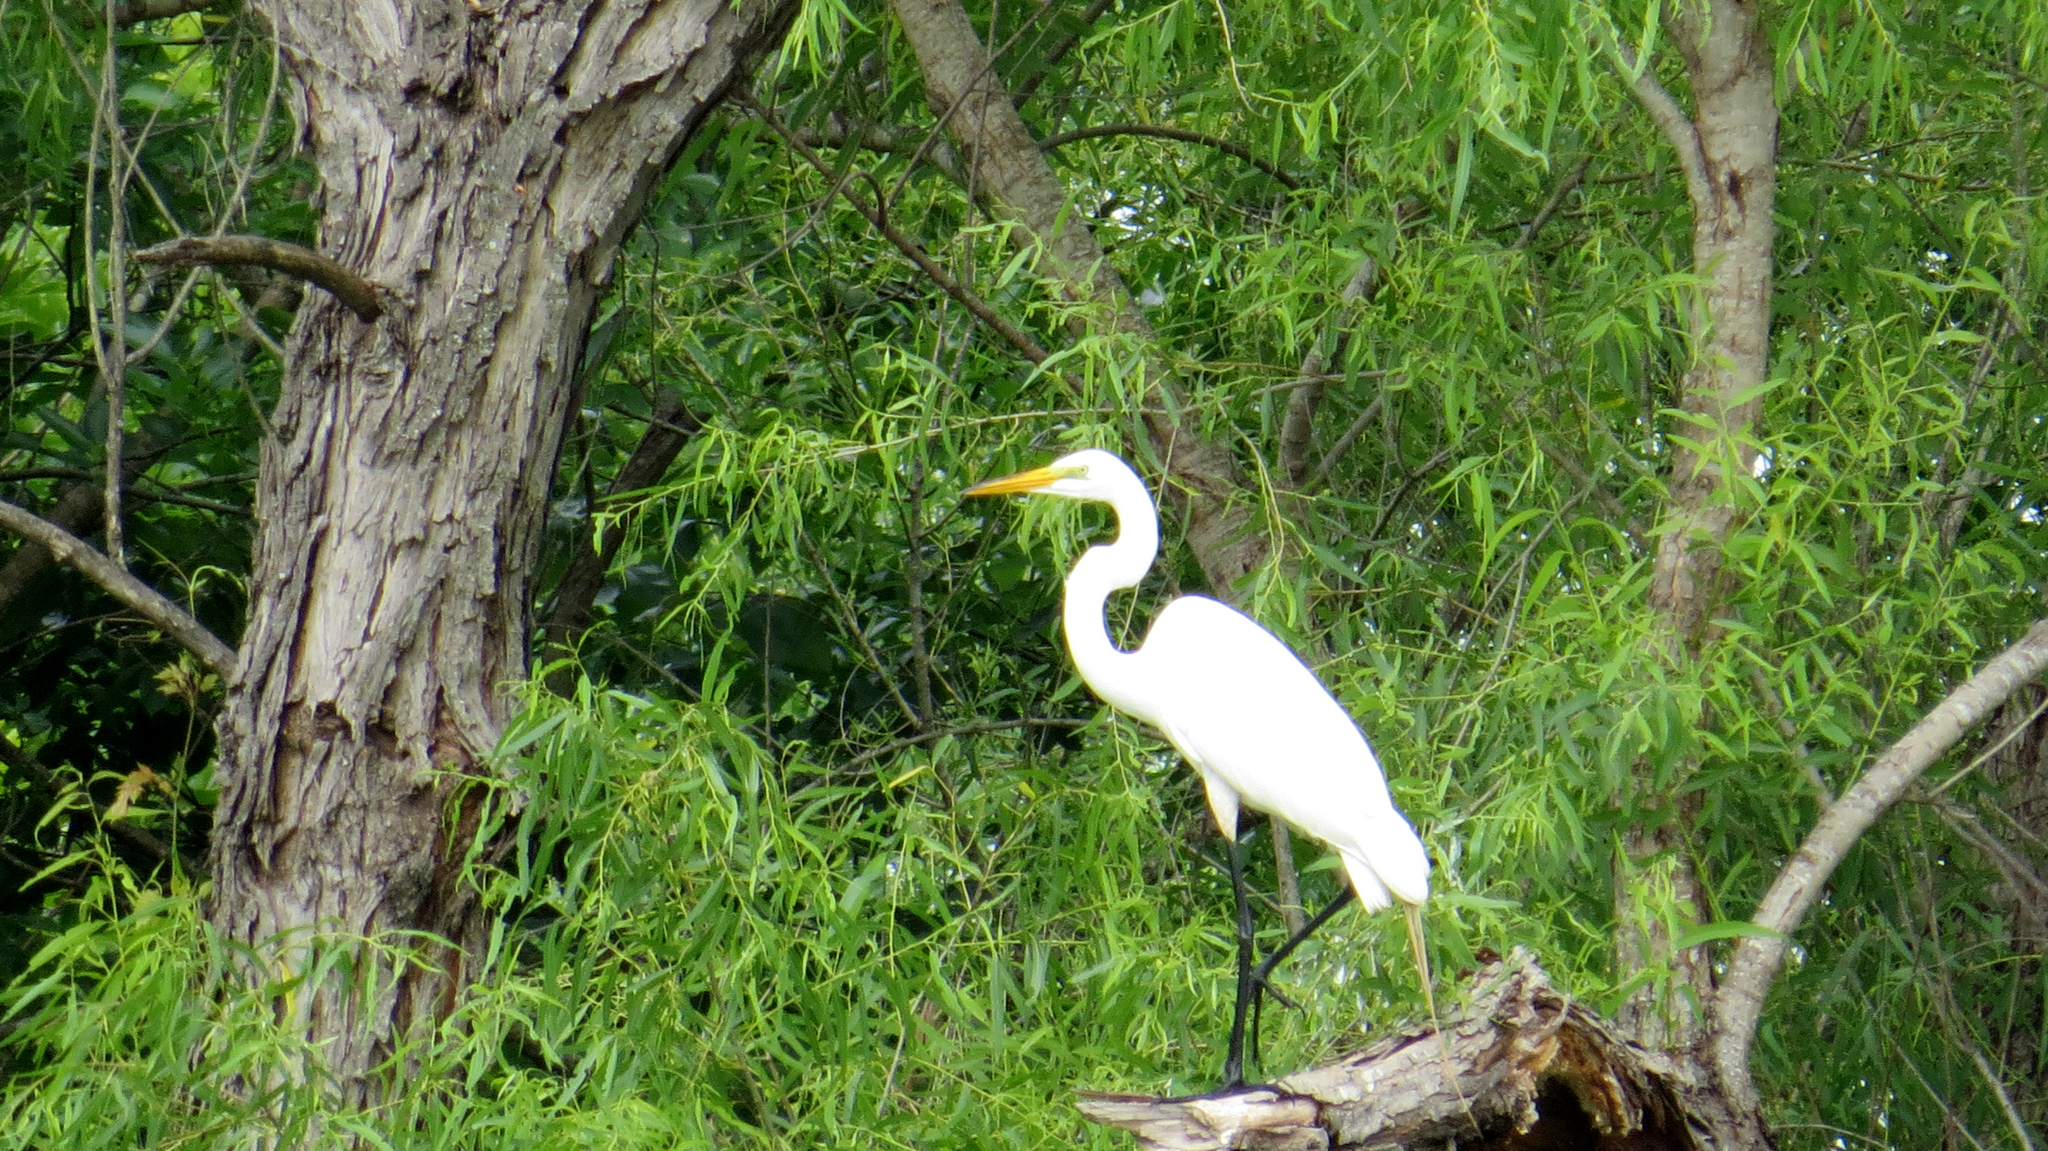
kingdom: Animalia
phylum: Chordata
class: Aves
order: Pelecaniformes
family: Ardeidae
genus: Ardea
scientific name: Ardea alba
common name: Great egret
